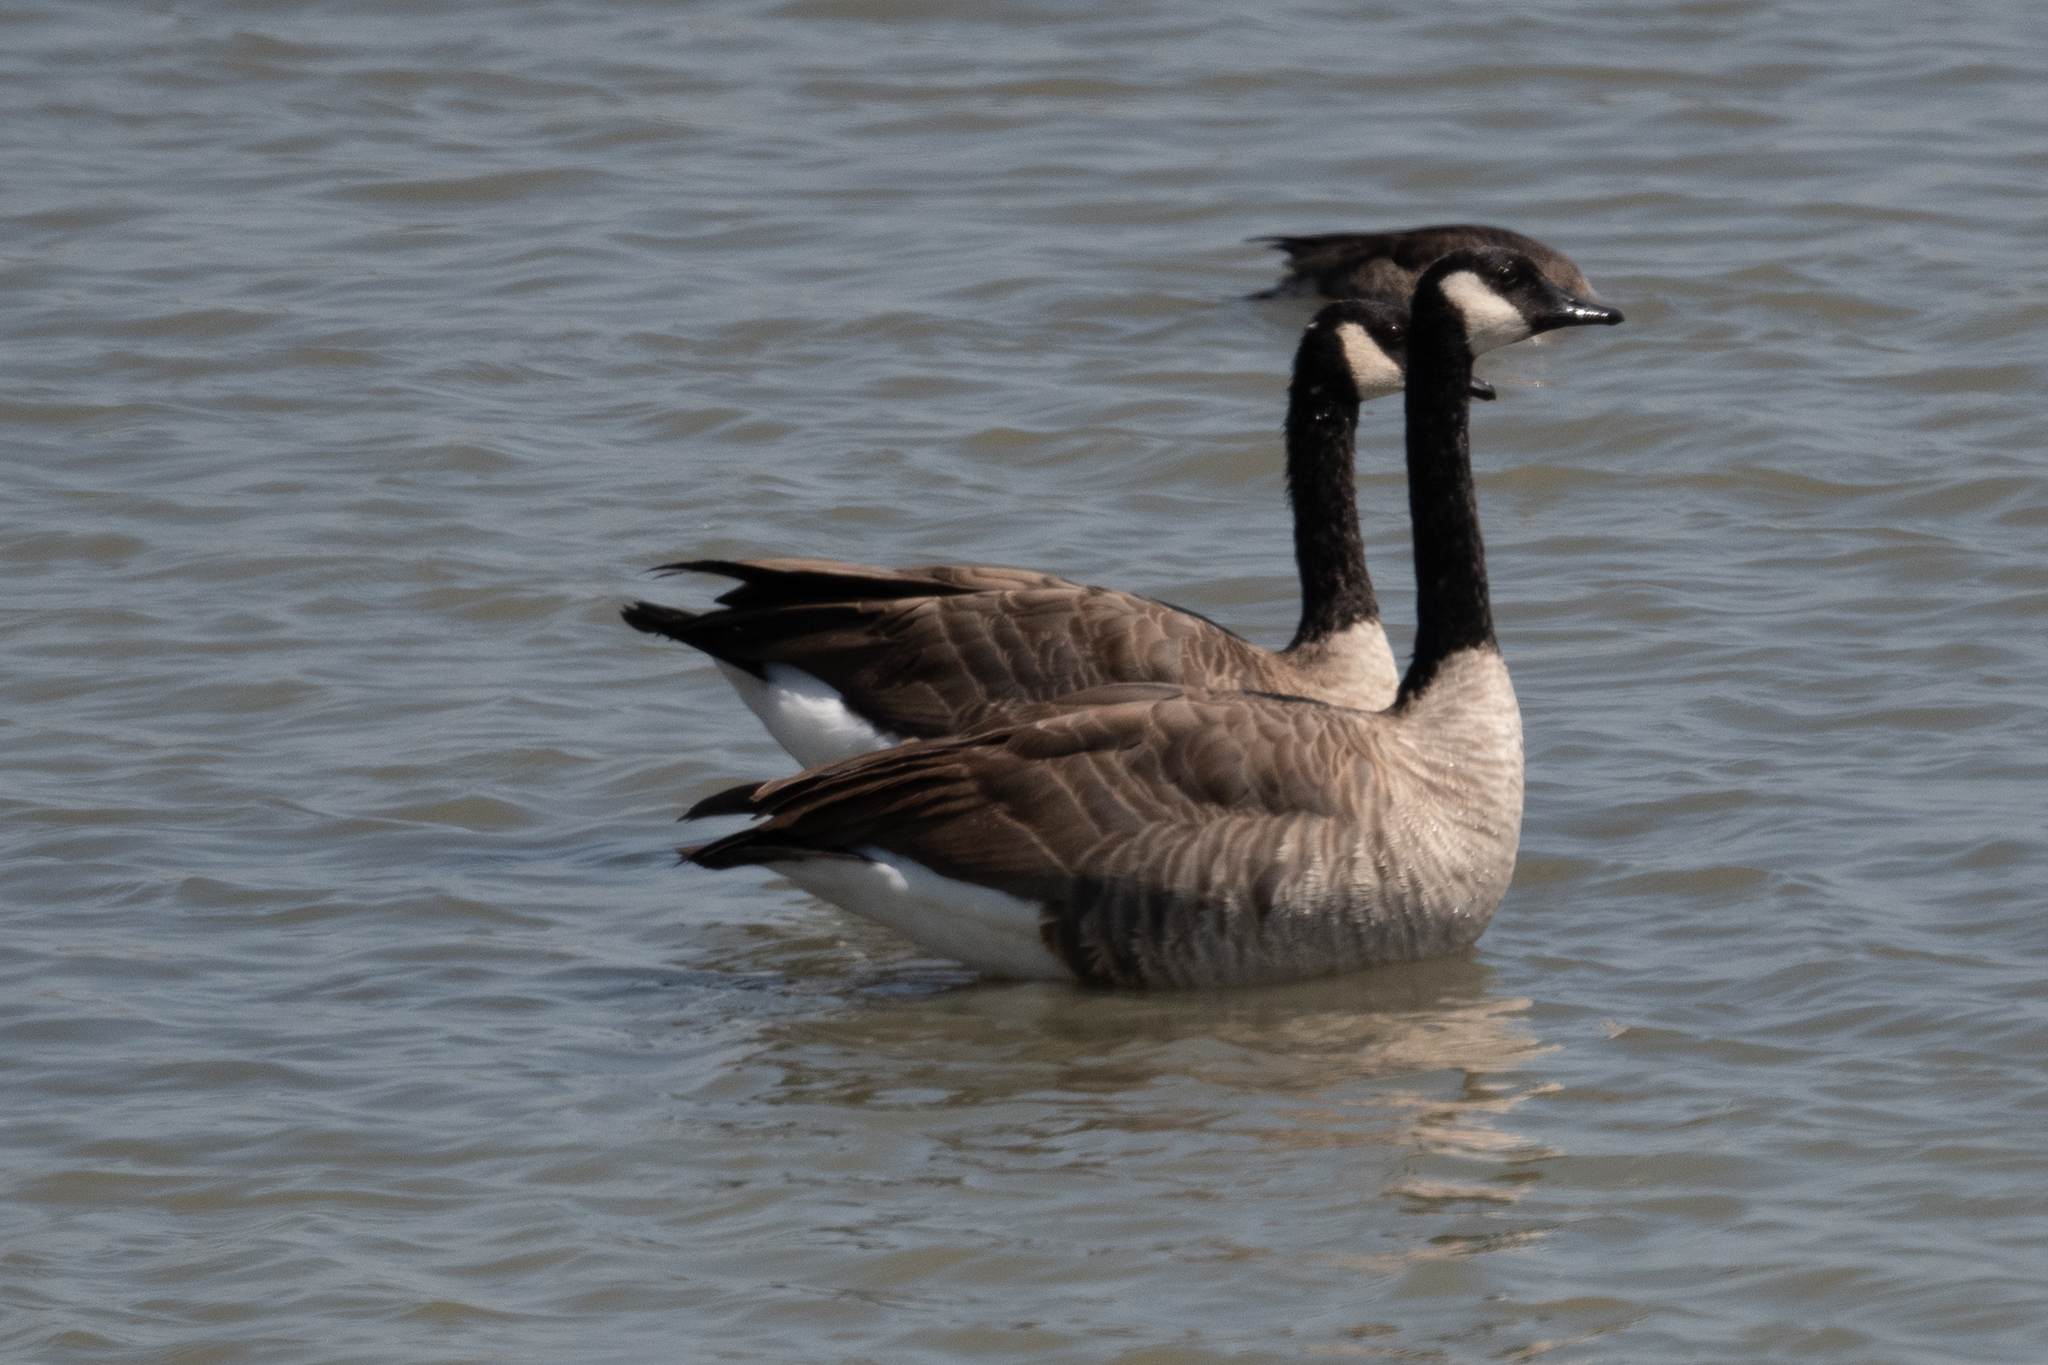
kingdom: Animalia
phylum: Chordata
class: Aves
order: Anseriformes
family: Anatidae
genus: Branta
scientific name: Branta canadensis
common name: Canada goose
